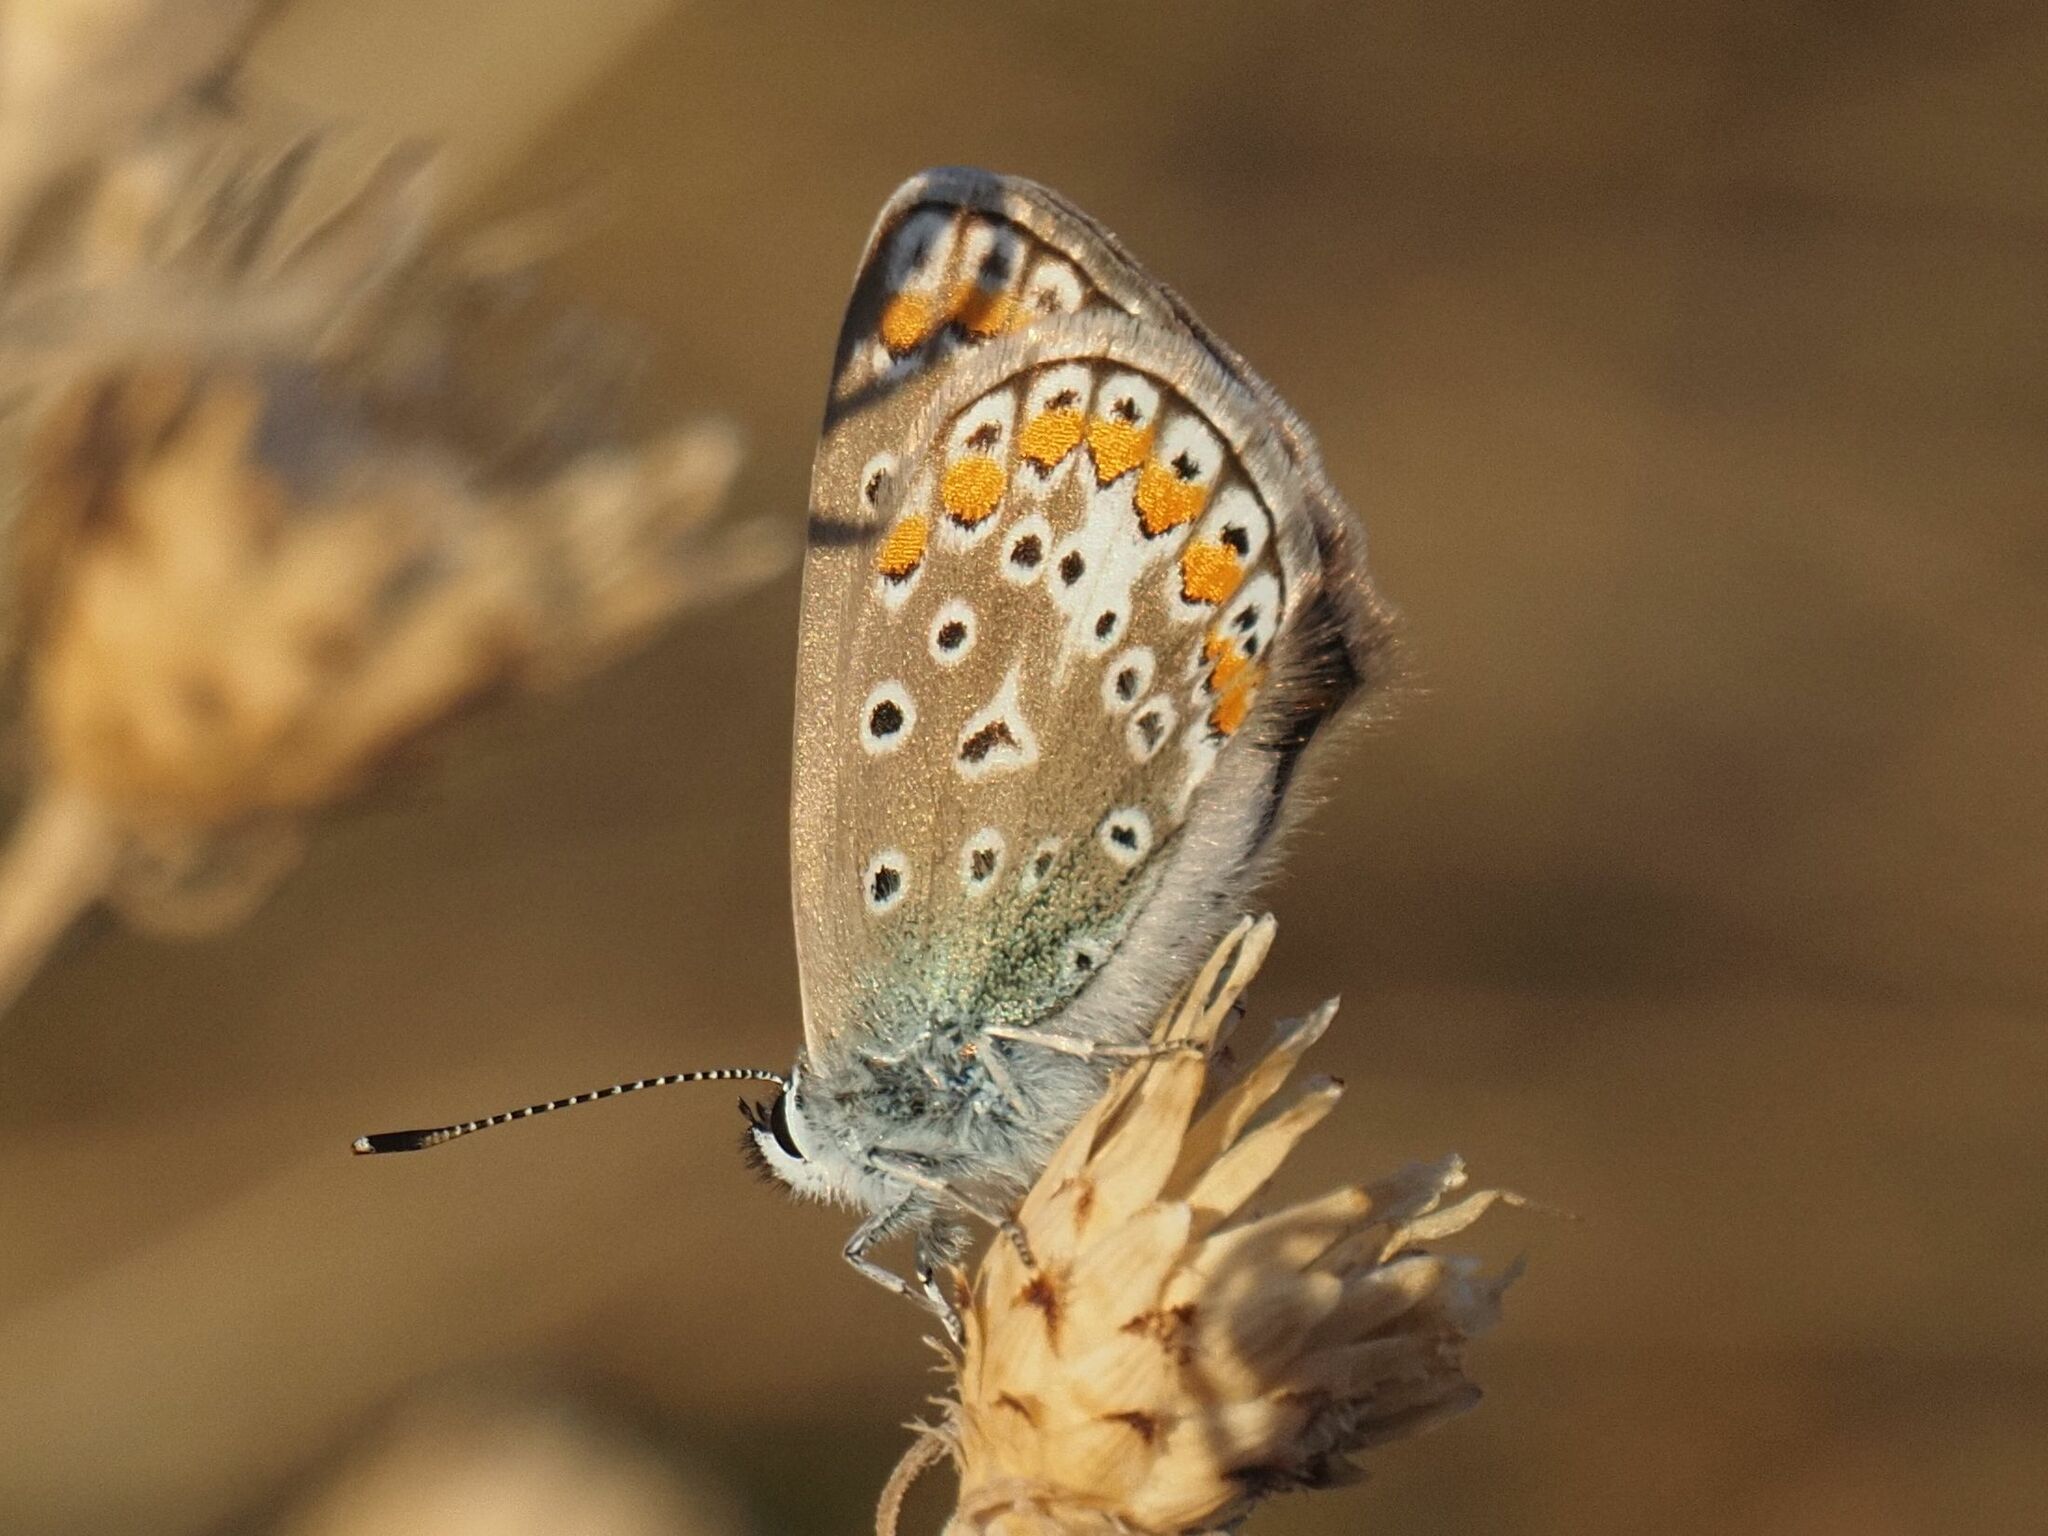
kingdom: Animalia
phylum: Arthropoda
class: Insecta
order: Lepidoptera
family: Lycaenidae
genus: Polyommatus
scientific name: Polyommatus icarus
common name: Common blue
